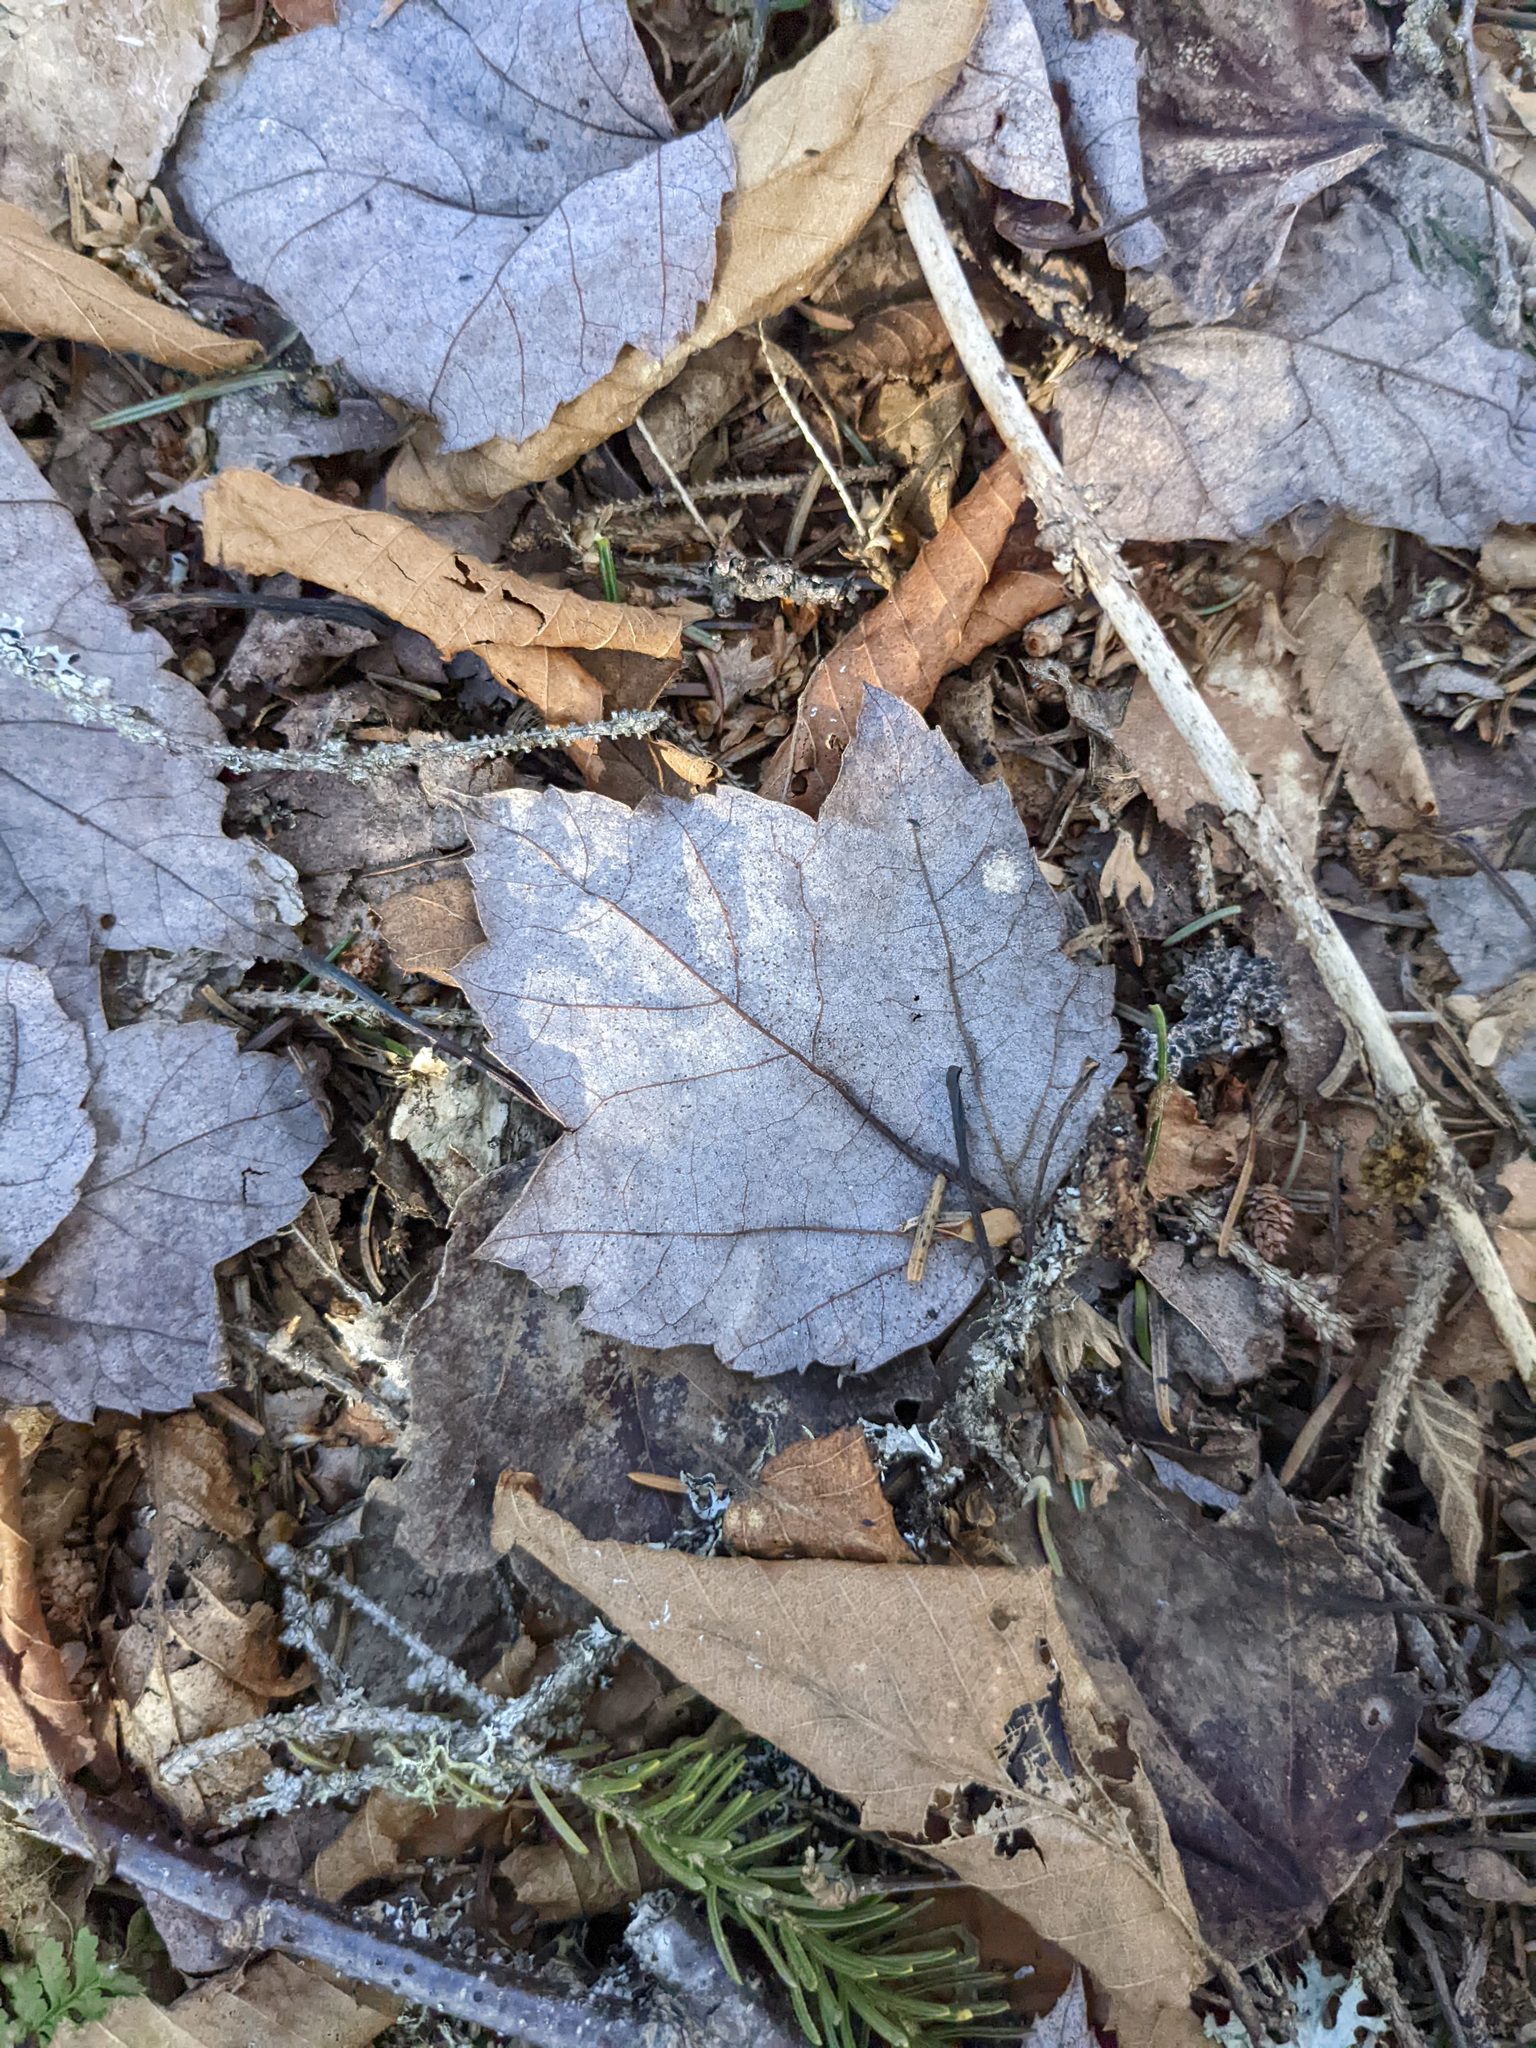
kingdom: Plantae
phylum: Tracheophyta
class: Magnoliopsida
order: Sapindales
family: Sapindaceae
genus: Acer
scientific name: Acer rubrum
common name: Red maple
